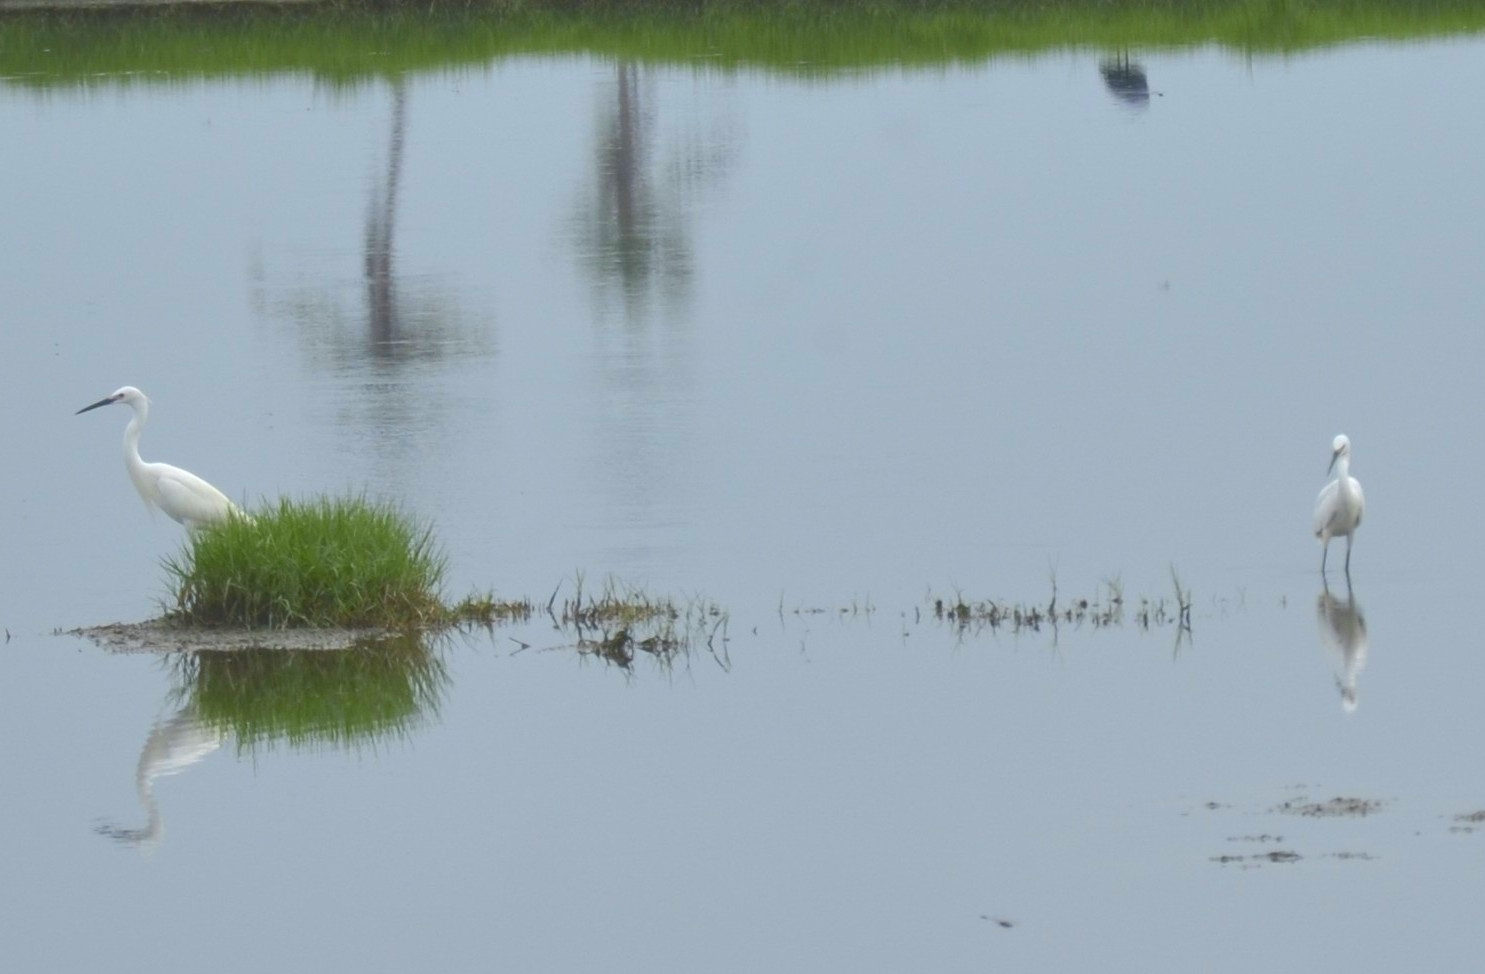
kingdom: Animalia
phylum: Chordata
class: Aves
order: Pelecaniformes
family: Ardeidae
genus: Egretta
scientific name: Egretta garzetta
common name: Little egret
